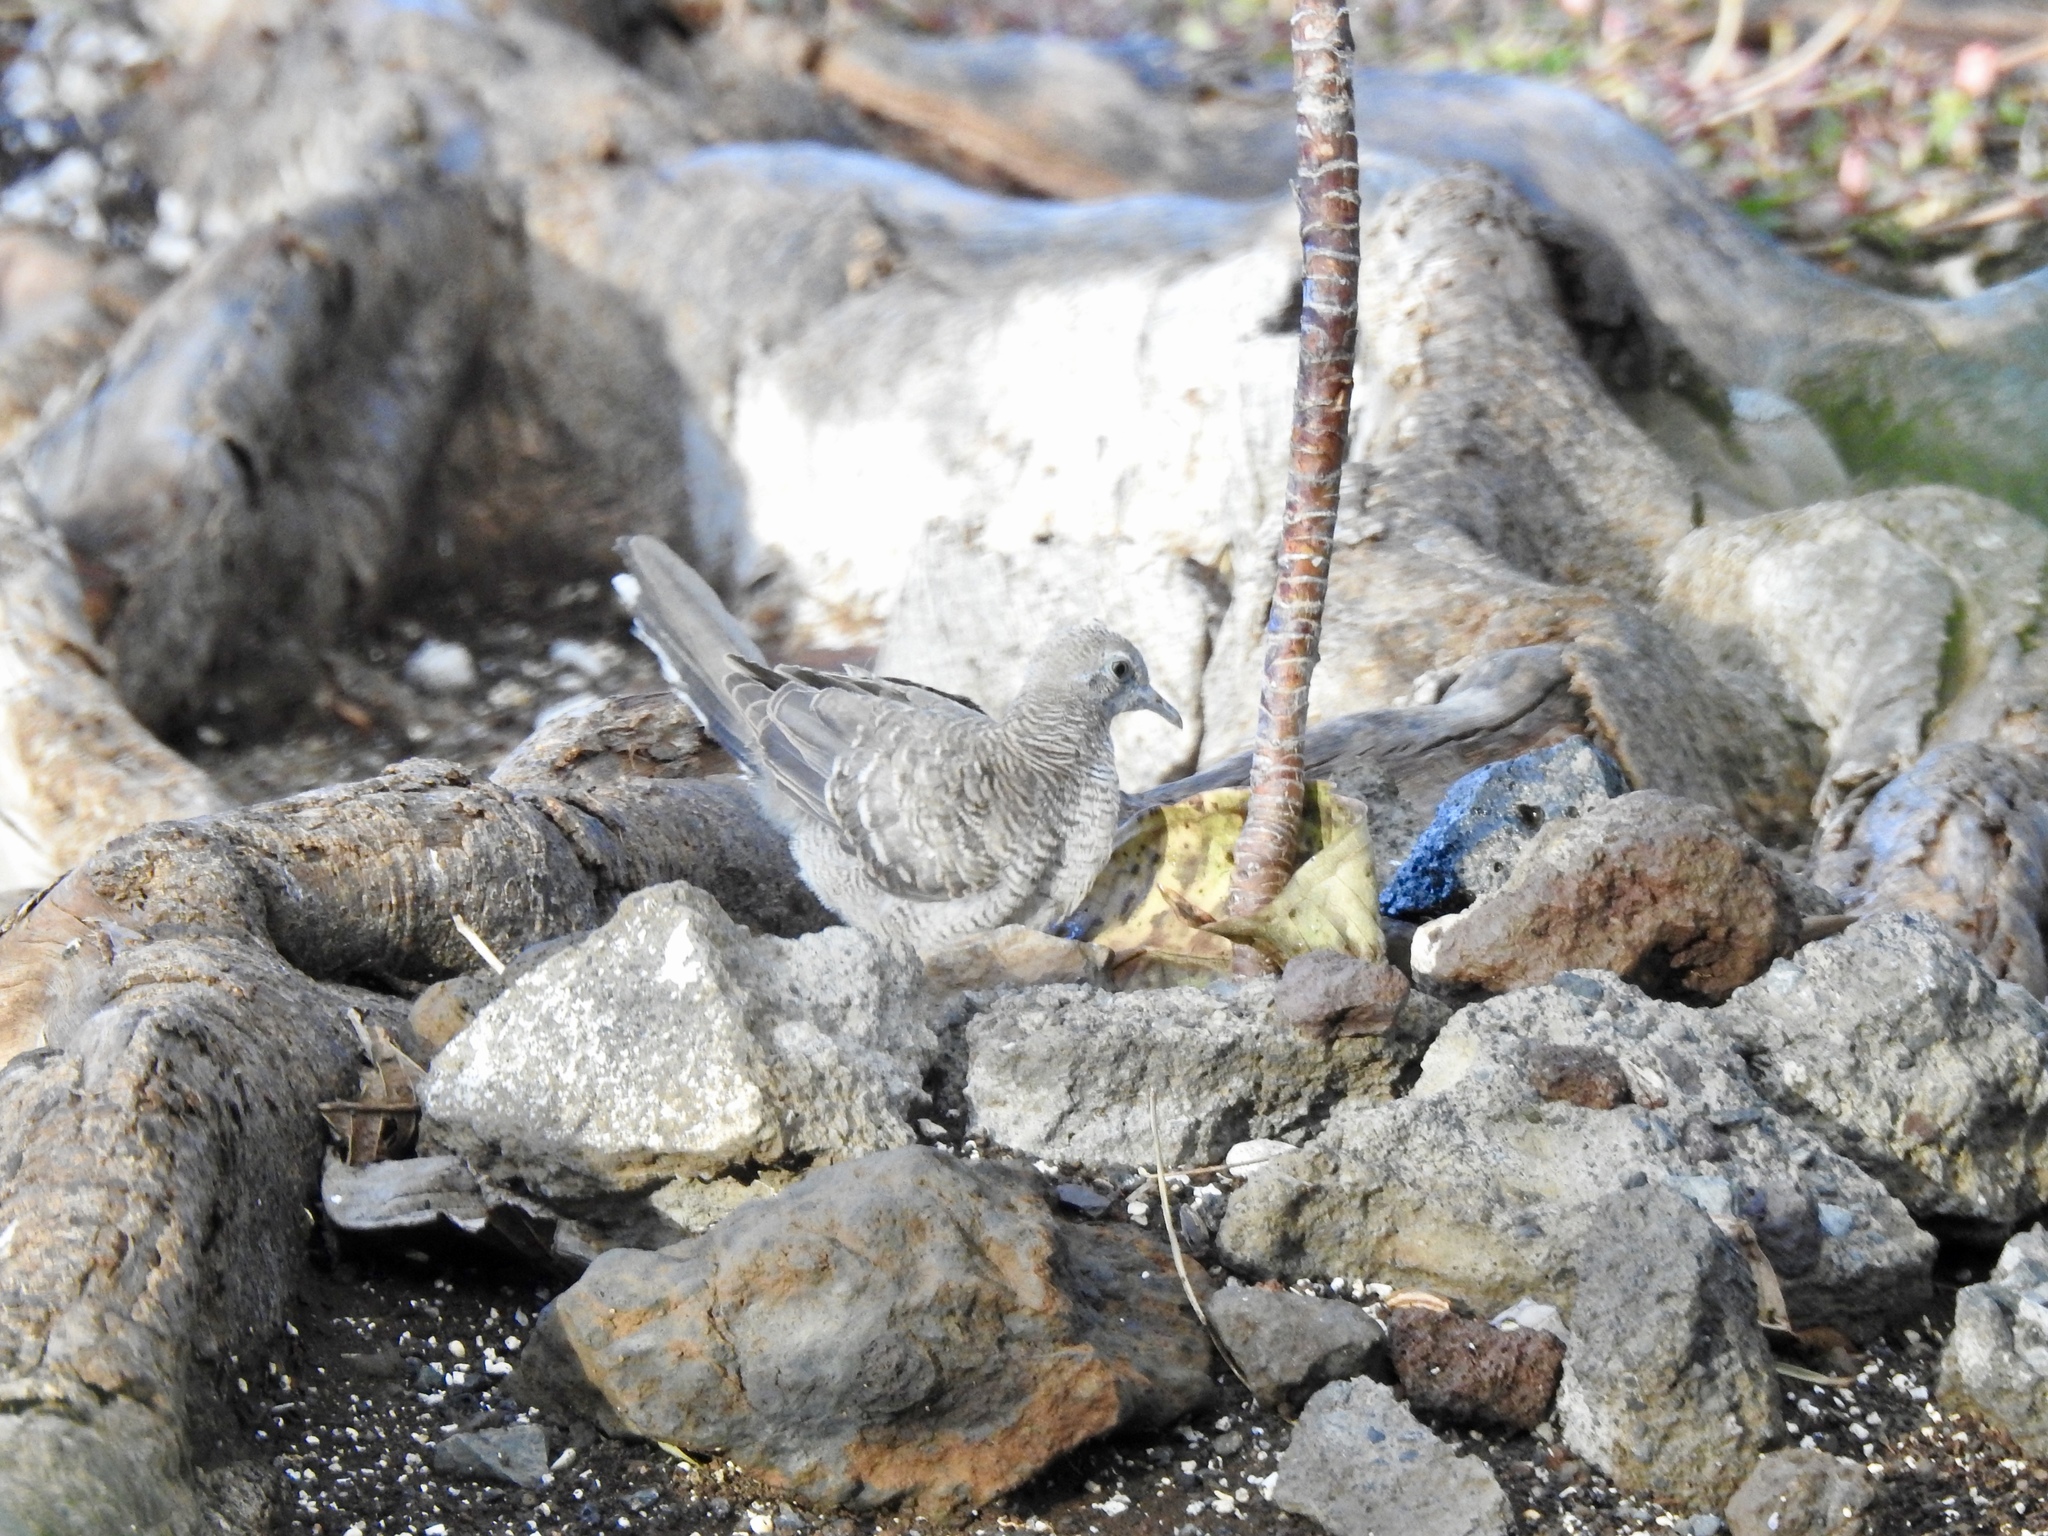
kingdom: Animalia
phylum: Chordata
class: Aves
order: Columbiformes
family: Columbidae
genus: Geopelia
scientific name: Geopelia striata
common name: Zebra dove
